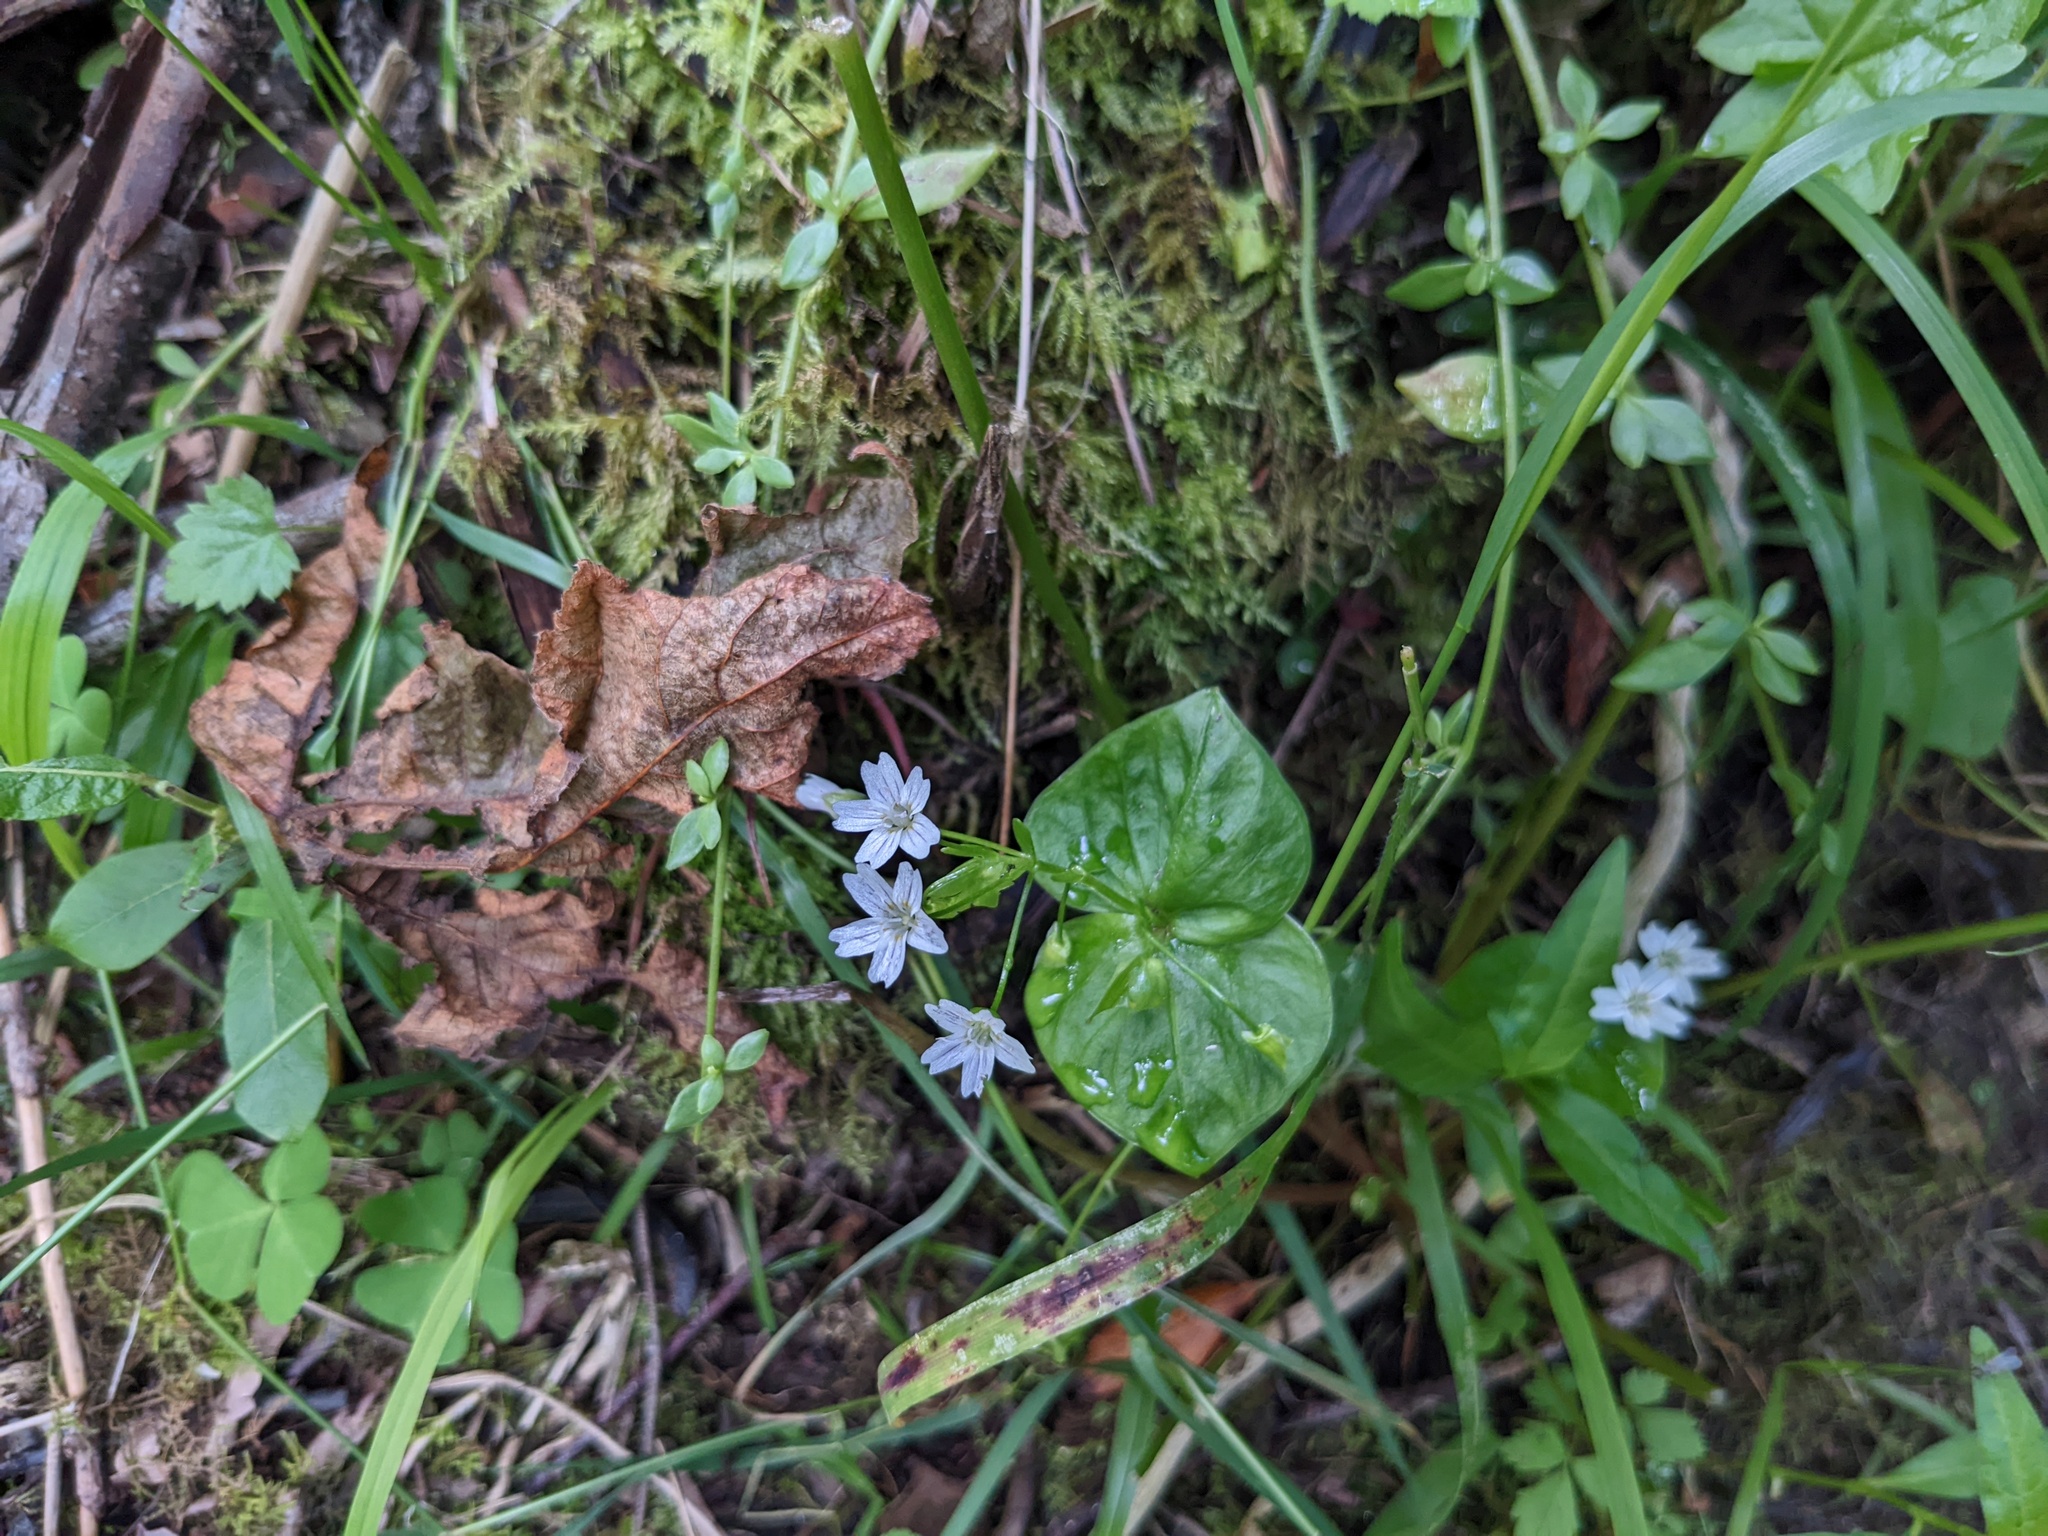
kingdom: Plantae
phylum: Tracheophyta
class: Magnoliopsida
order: Caryophyllales
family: Montiaceae
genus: Claytonia
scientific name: Claytonia sibirica
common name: Pink purslane
